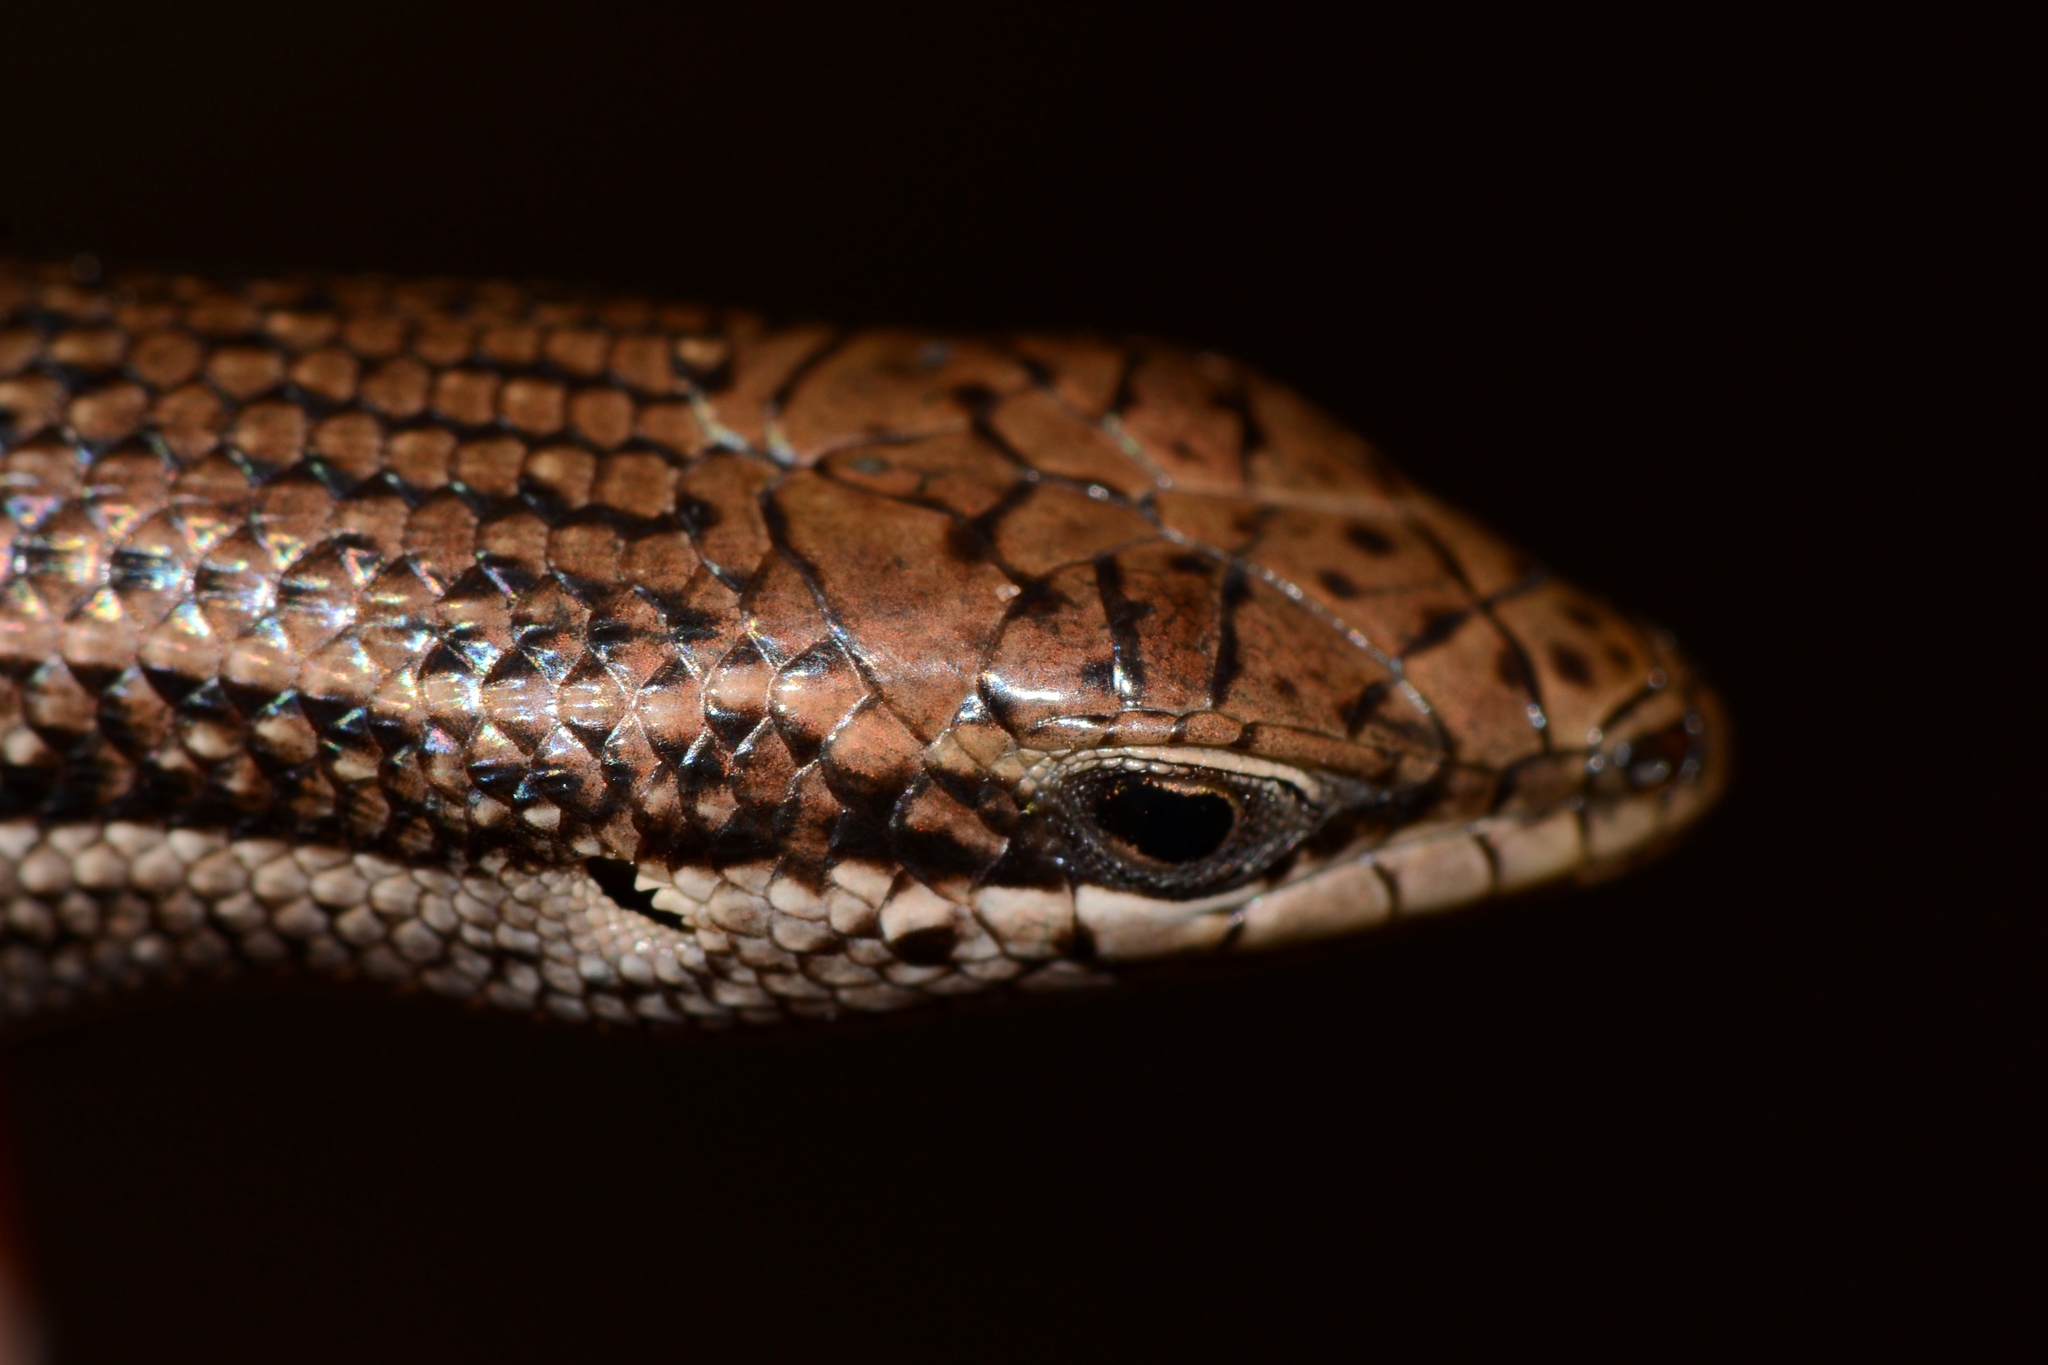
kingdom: Animalia
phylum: Chordata
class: Squamata
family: Scincidae
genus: Trachylepis
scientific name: Trachylepis laevigata
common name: Variable skink
